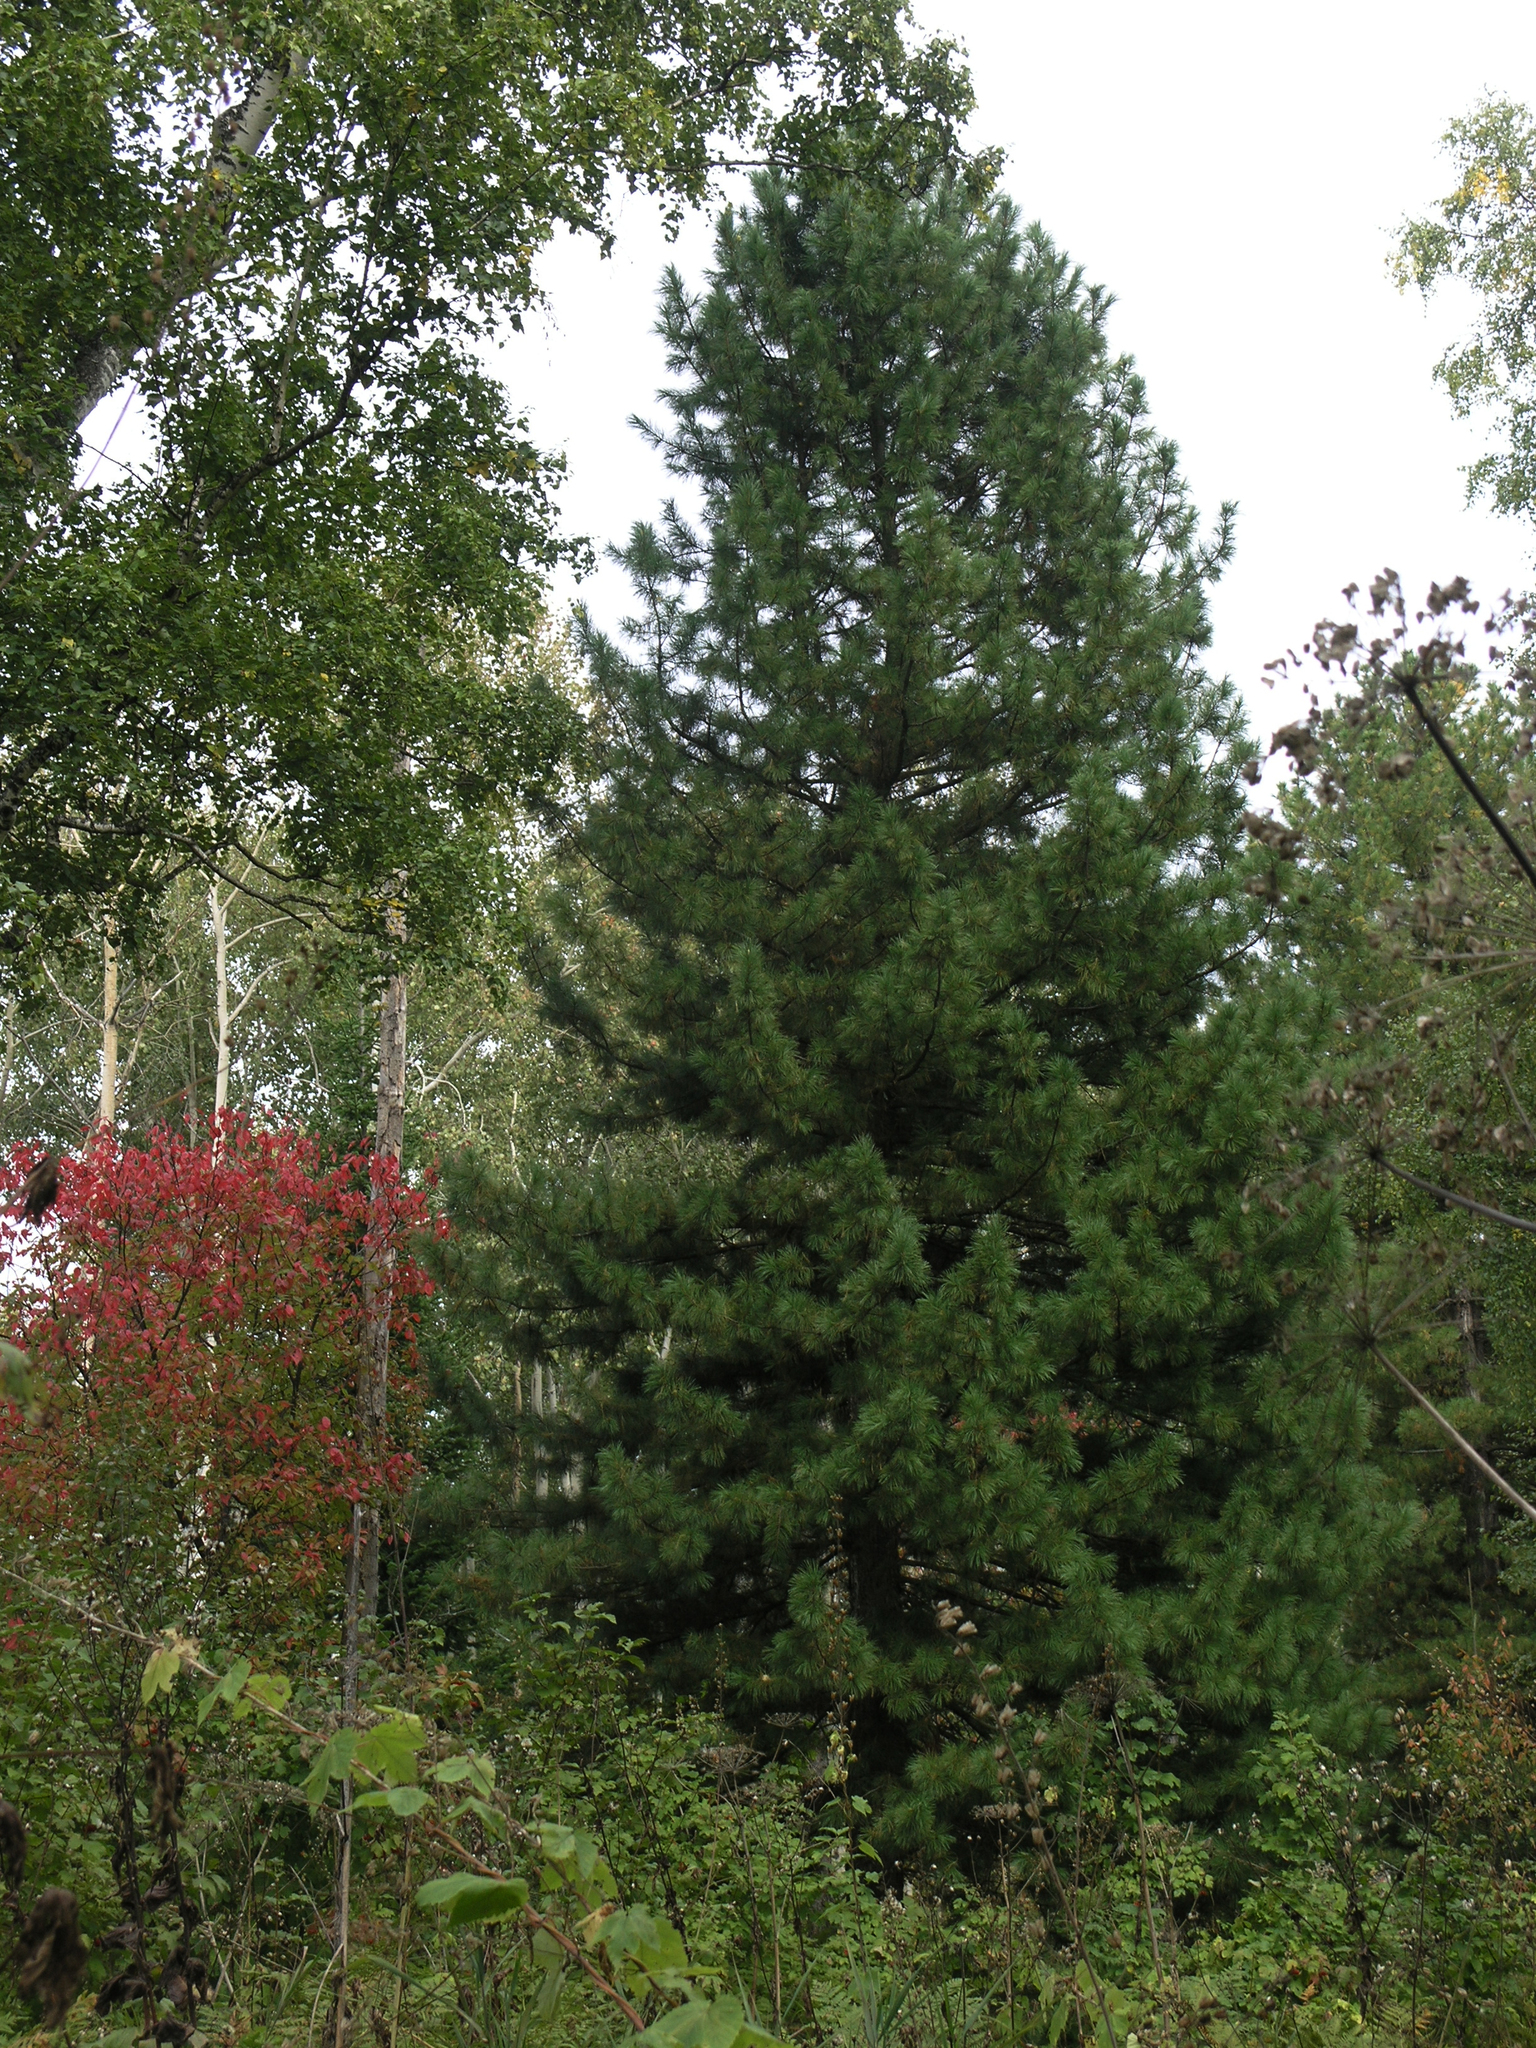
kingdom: Plantae
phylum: Tracheophyta
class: Pinopsida
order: Pinales
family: Pinaceae
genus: Pinus
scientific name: Pinus sibirica
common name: Siberian pine
